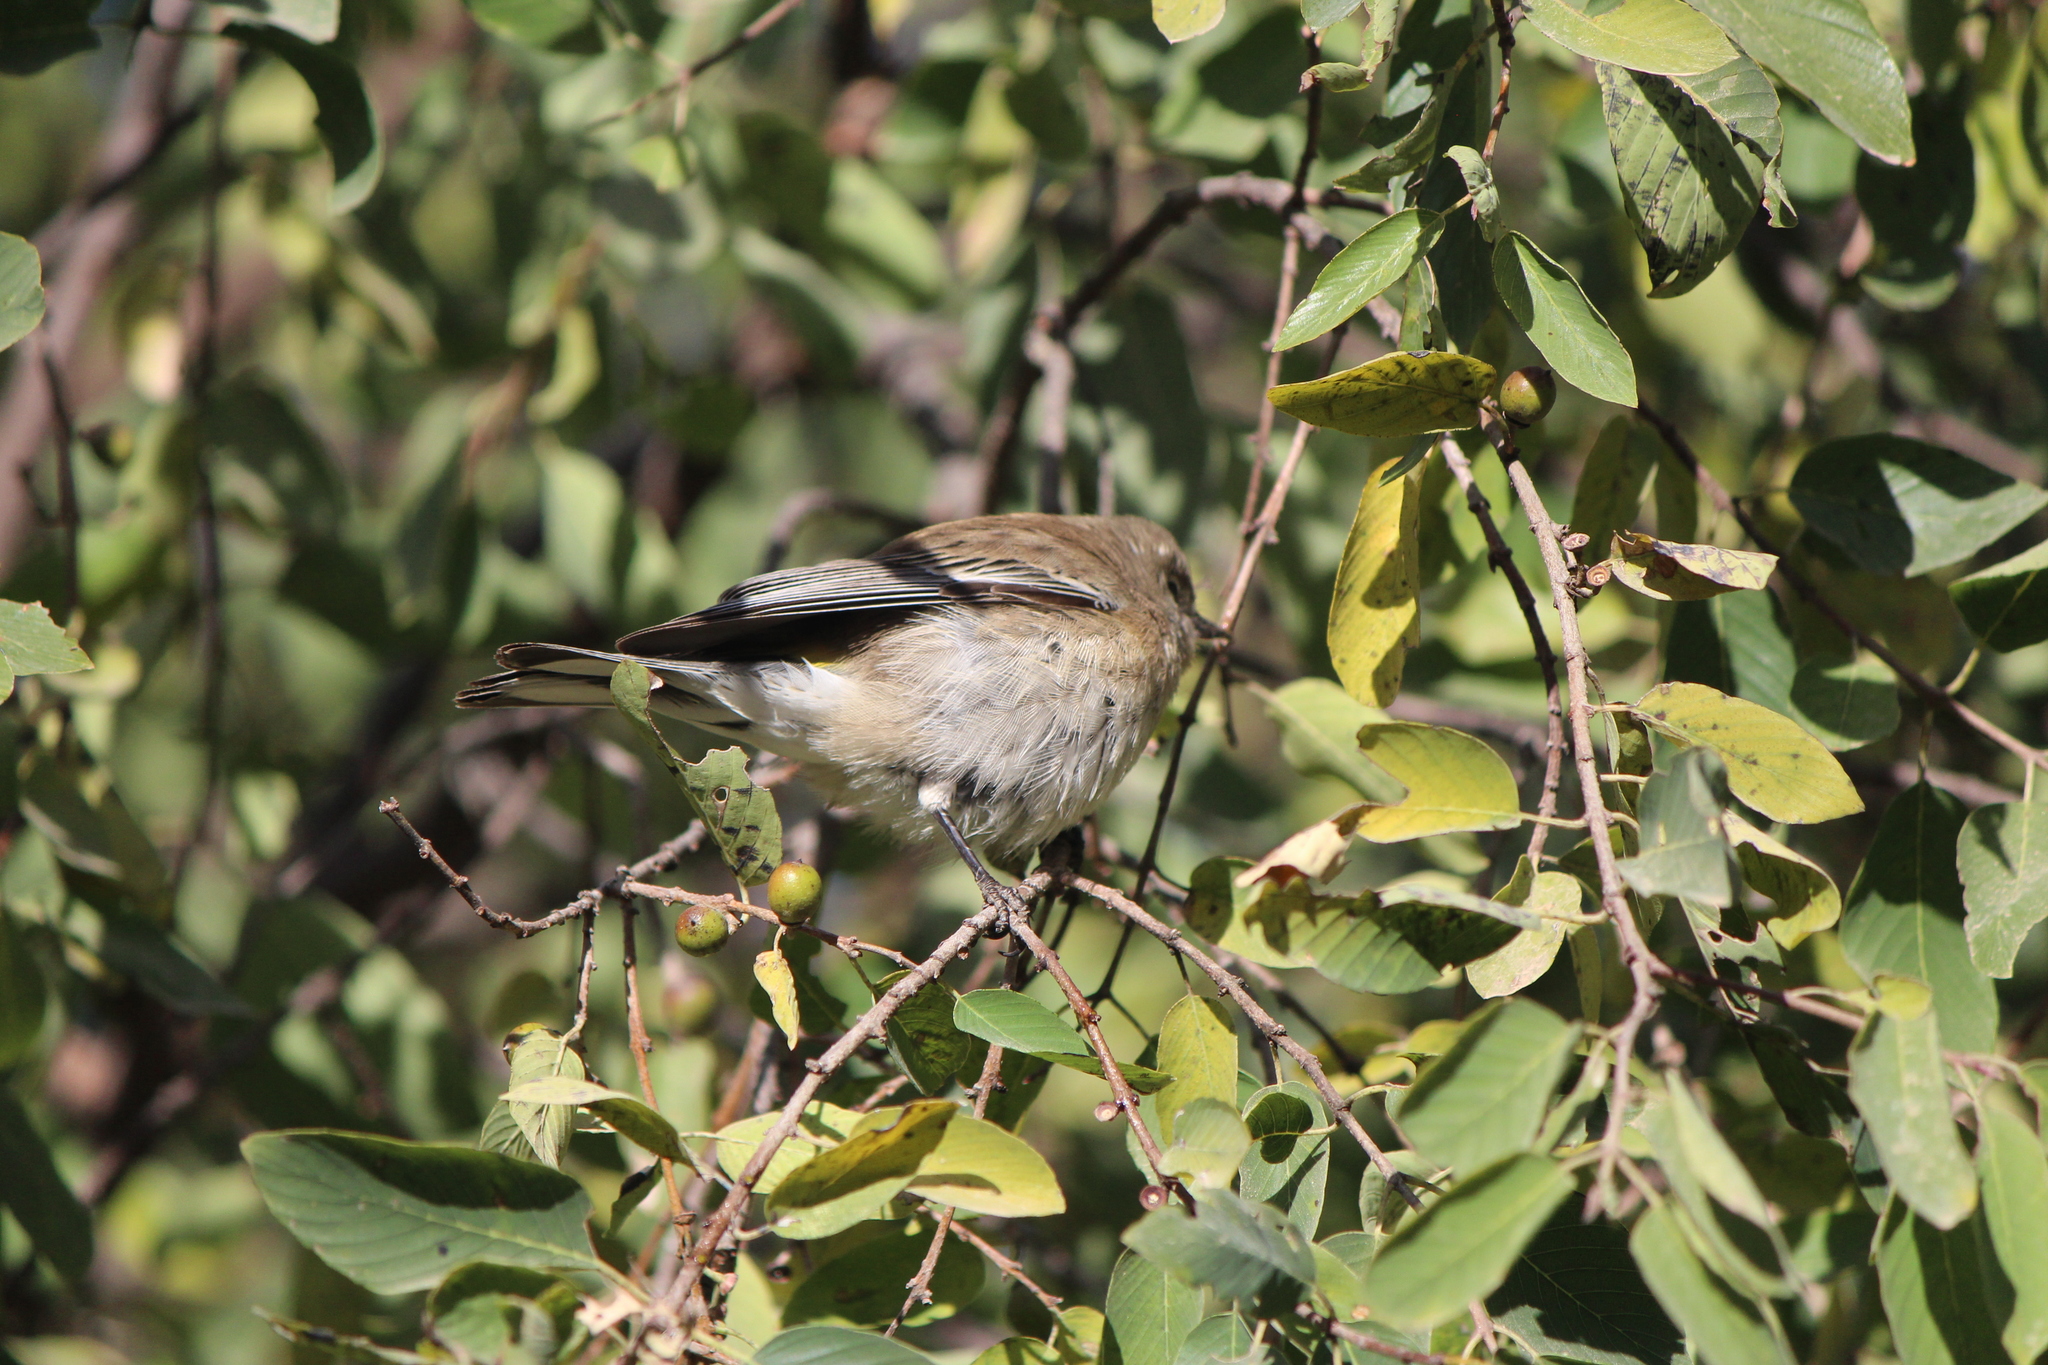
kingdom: Animalia
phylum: Chordata
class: Aves
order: Passeriformes
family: Parulidae
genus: Setophaga
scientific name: Setophaga auduboni
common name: Audubon's warbler
